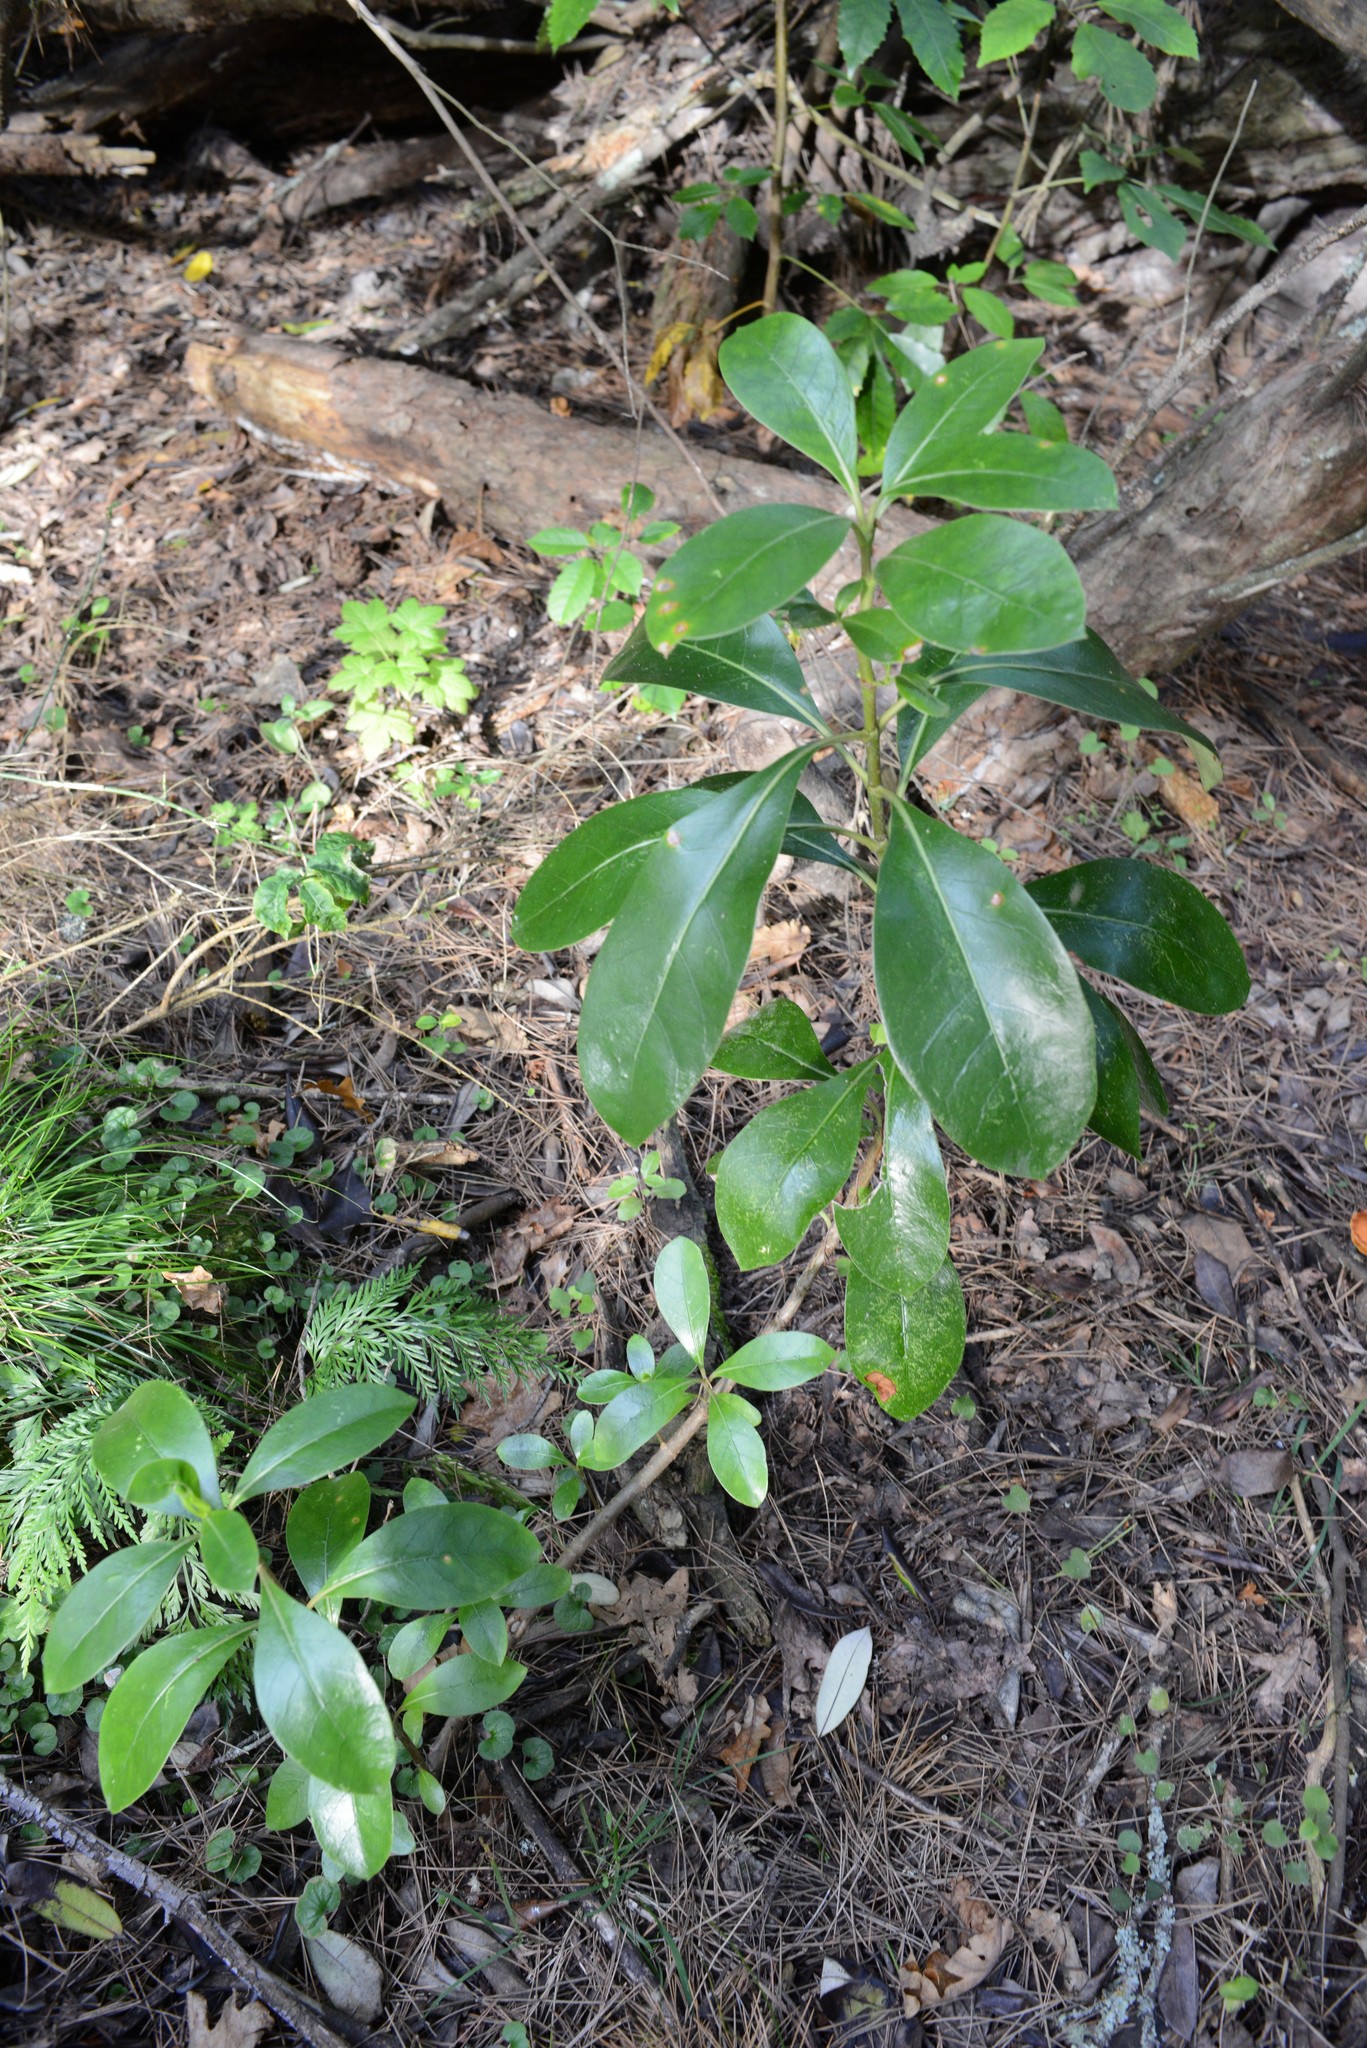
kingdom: Plantae
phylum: Tracheophyta
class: Magnoliopsida
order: Gentianales
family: Rubiaceae
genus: Coprosma
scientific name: Coprosma lucida
